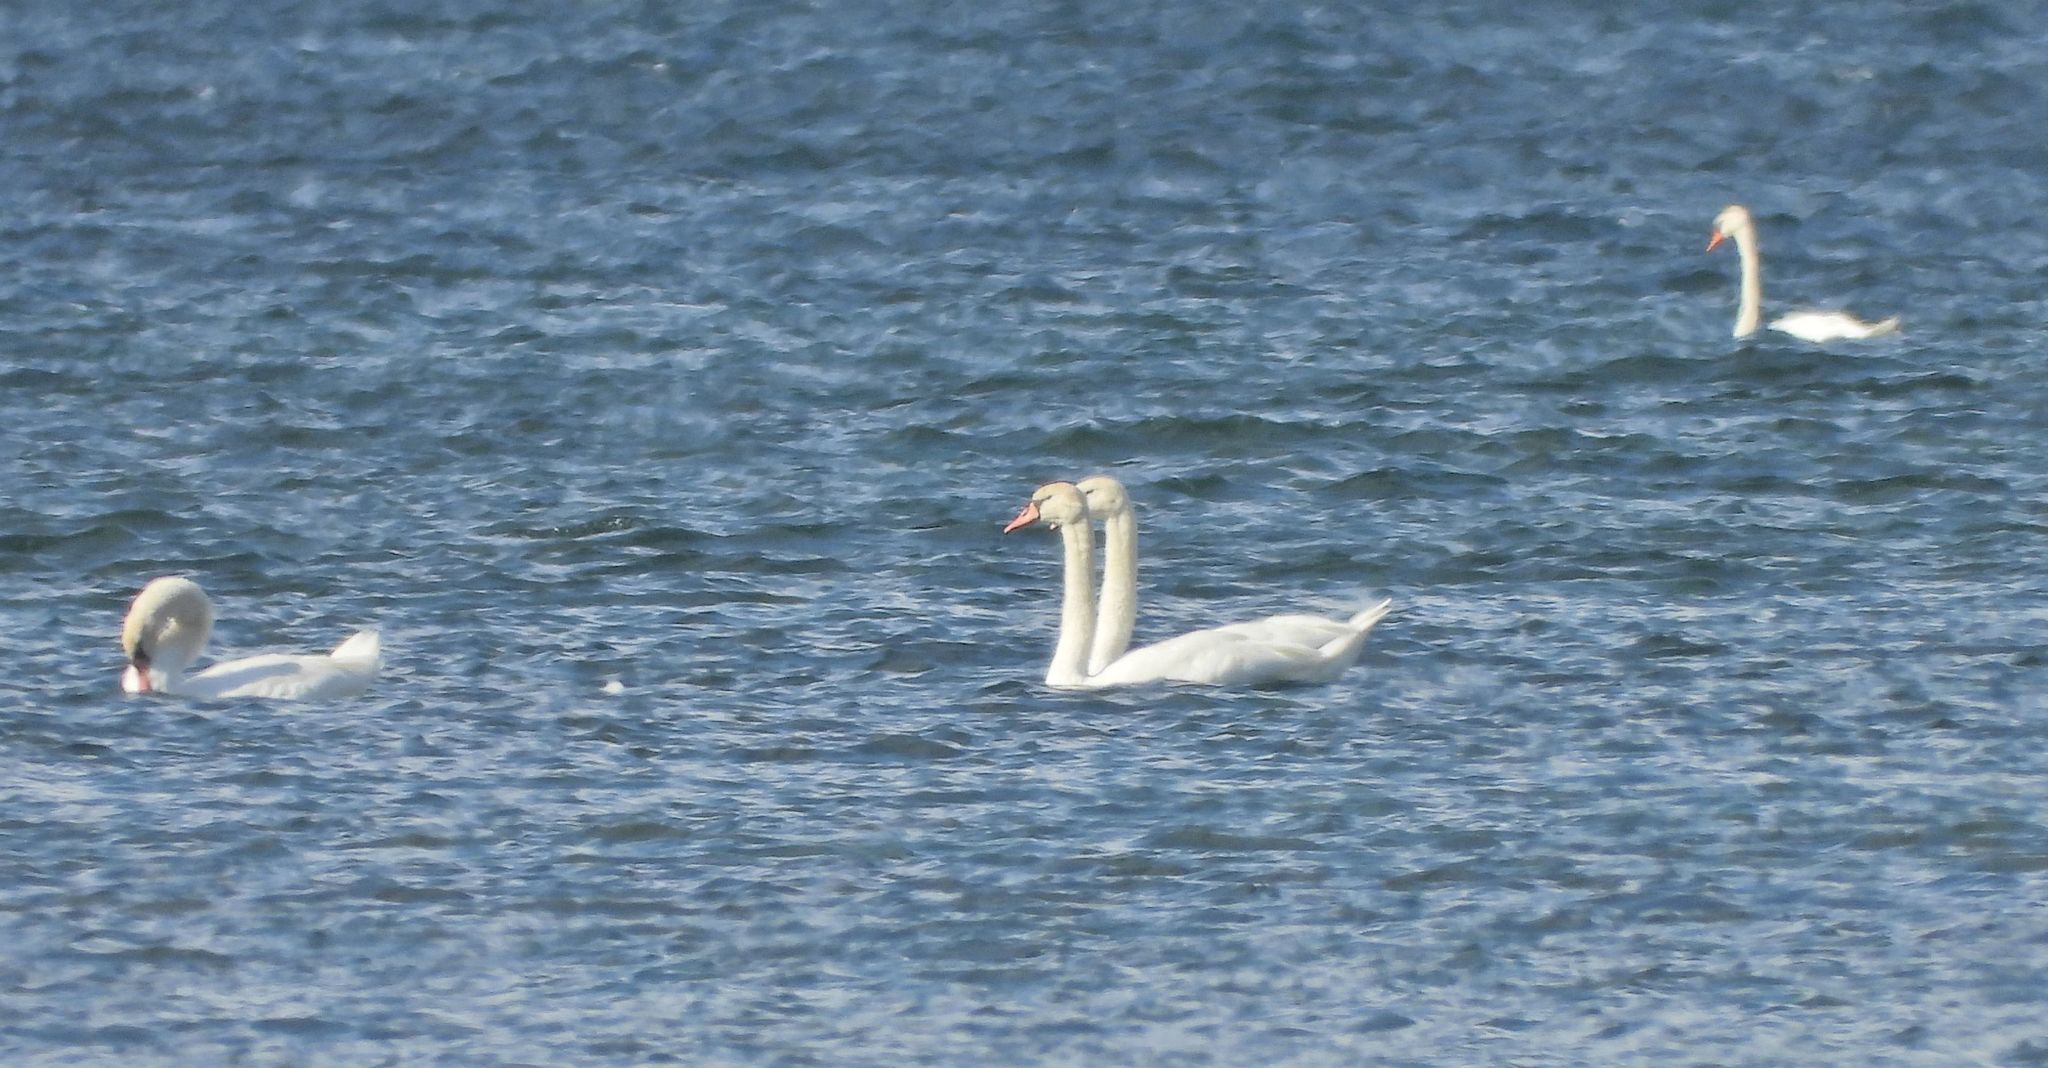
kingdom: Animalia
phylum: Chordata
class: Aves
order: Anseriformes
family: Anatidae
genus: Cygnus
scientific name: Cygnus olor
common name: Mute swan
